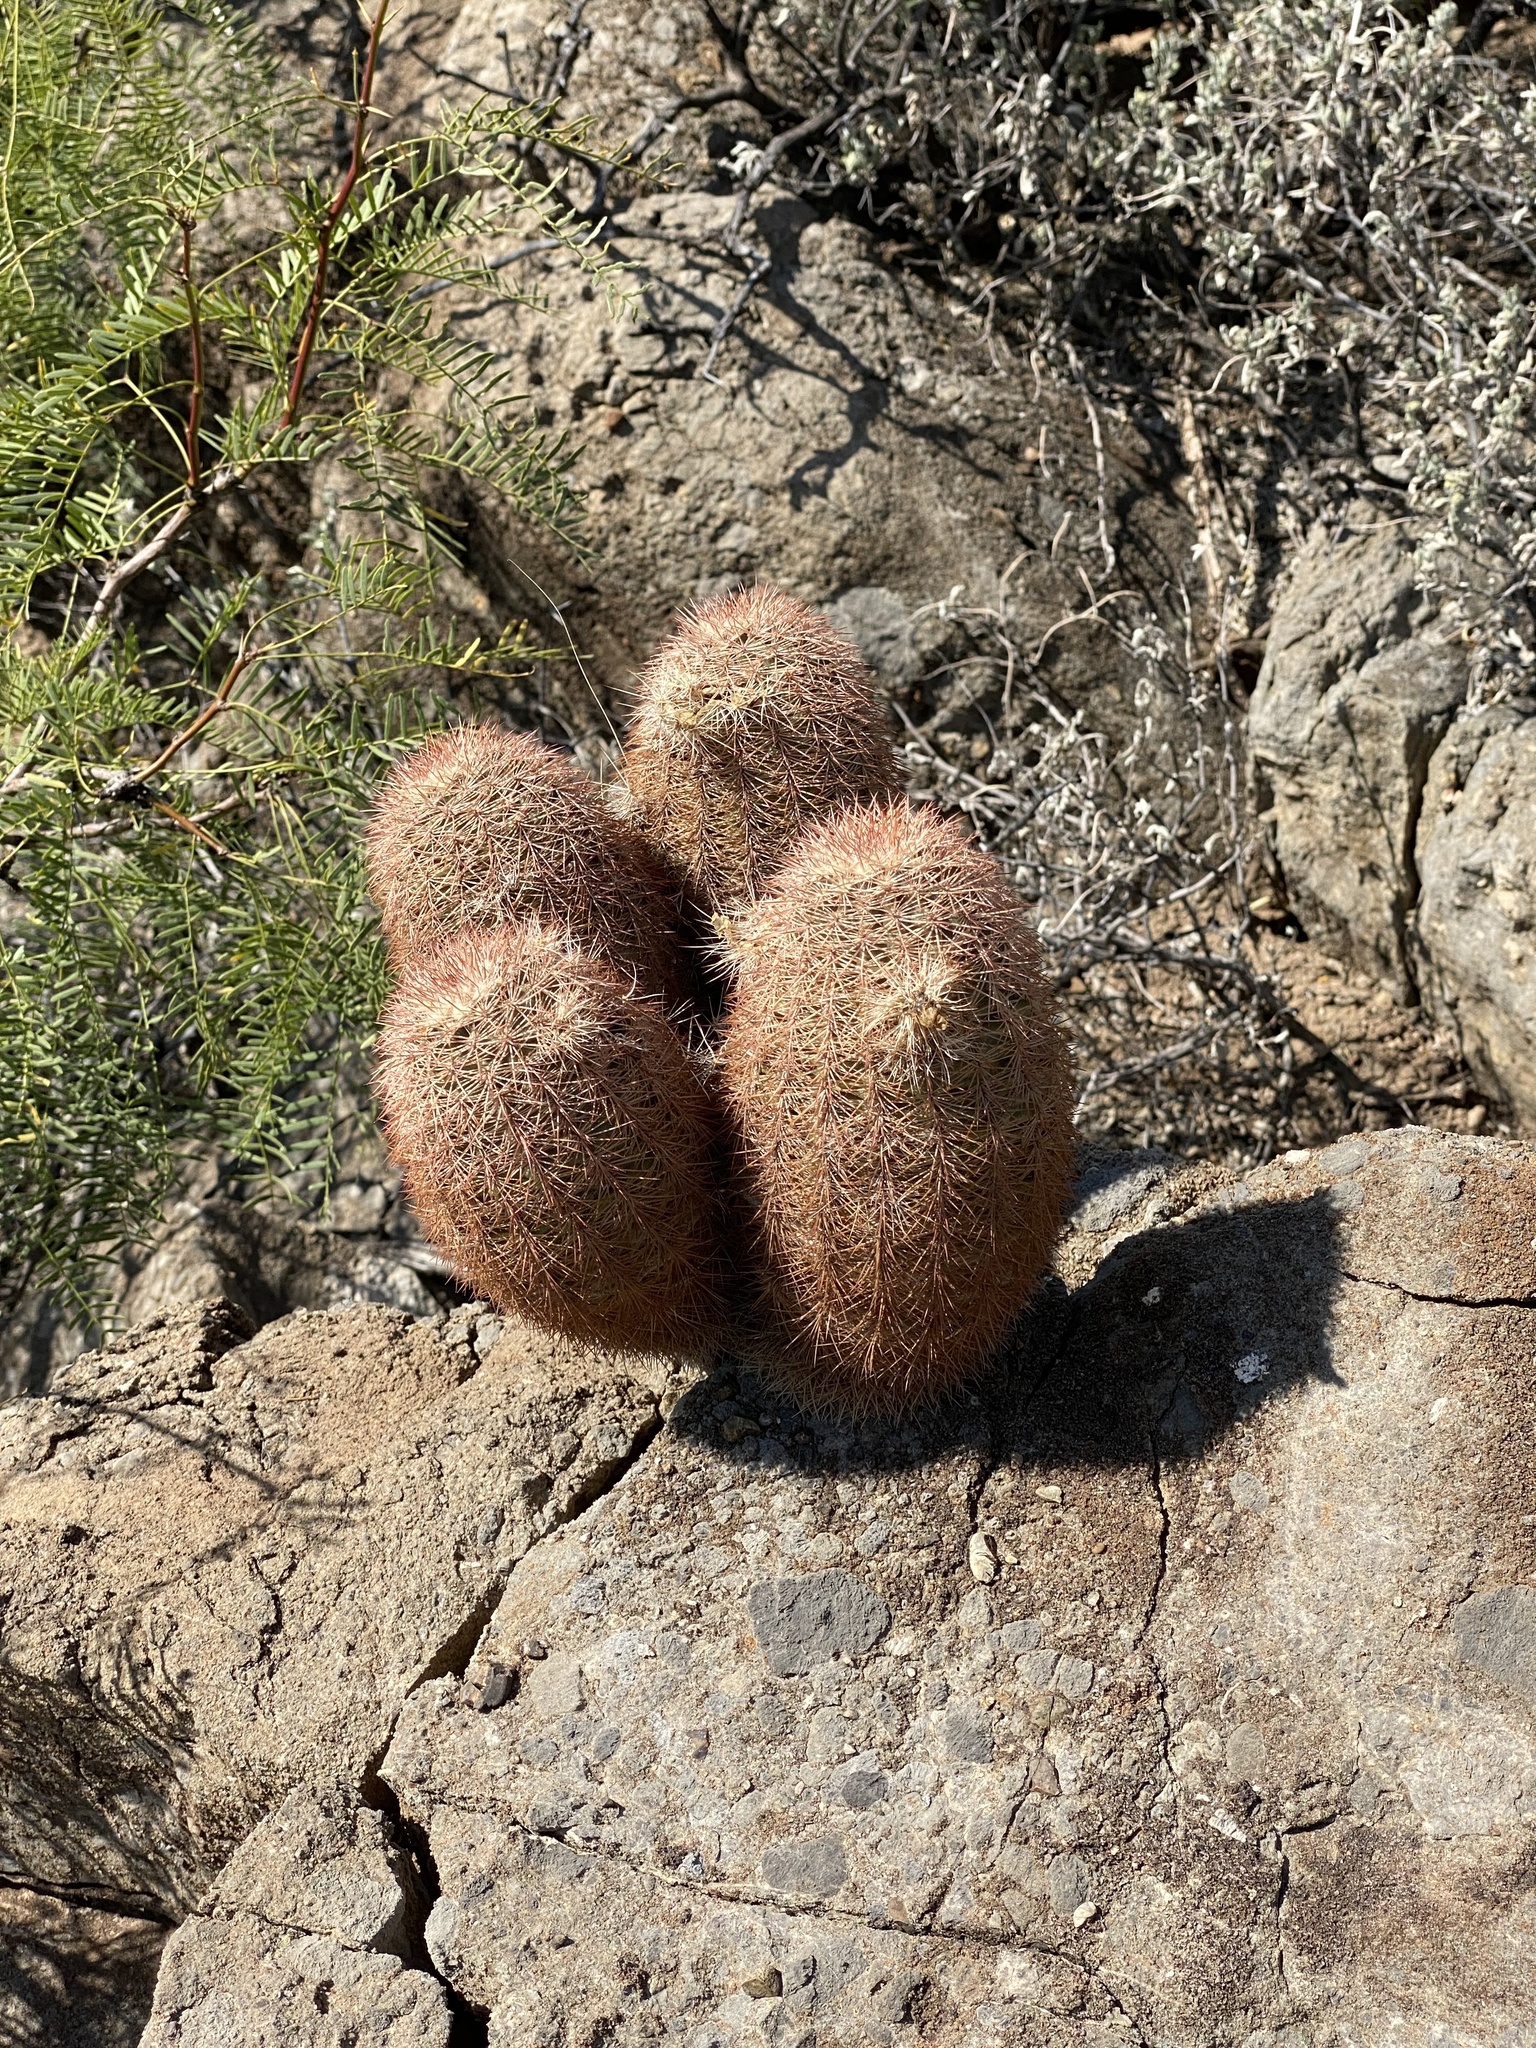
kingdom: Plantae
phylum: Tracheophyta
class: Magnoliopsida
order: Caryophyllales
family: Cactaceae
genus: Echinocereus
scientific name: Echinocereus dasyacanthus
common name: Spiny hedgehog cactus
